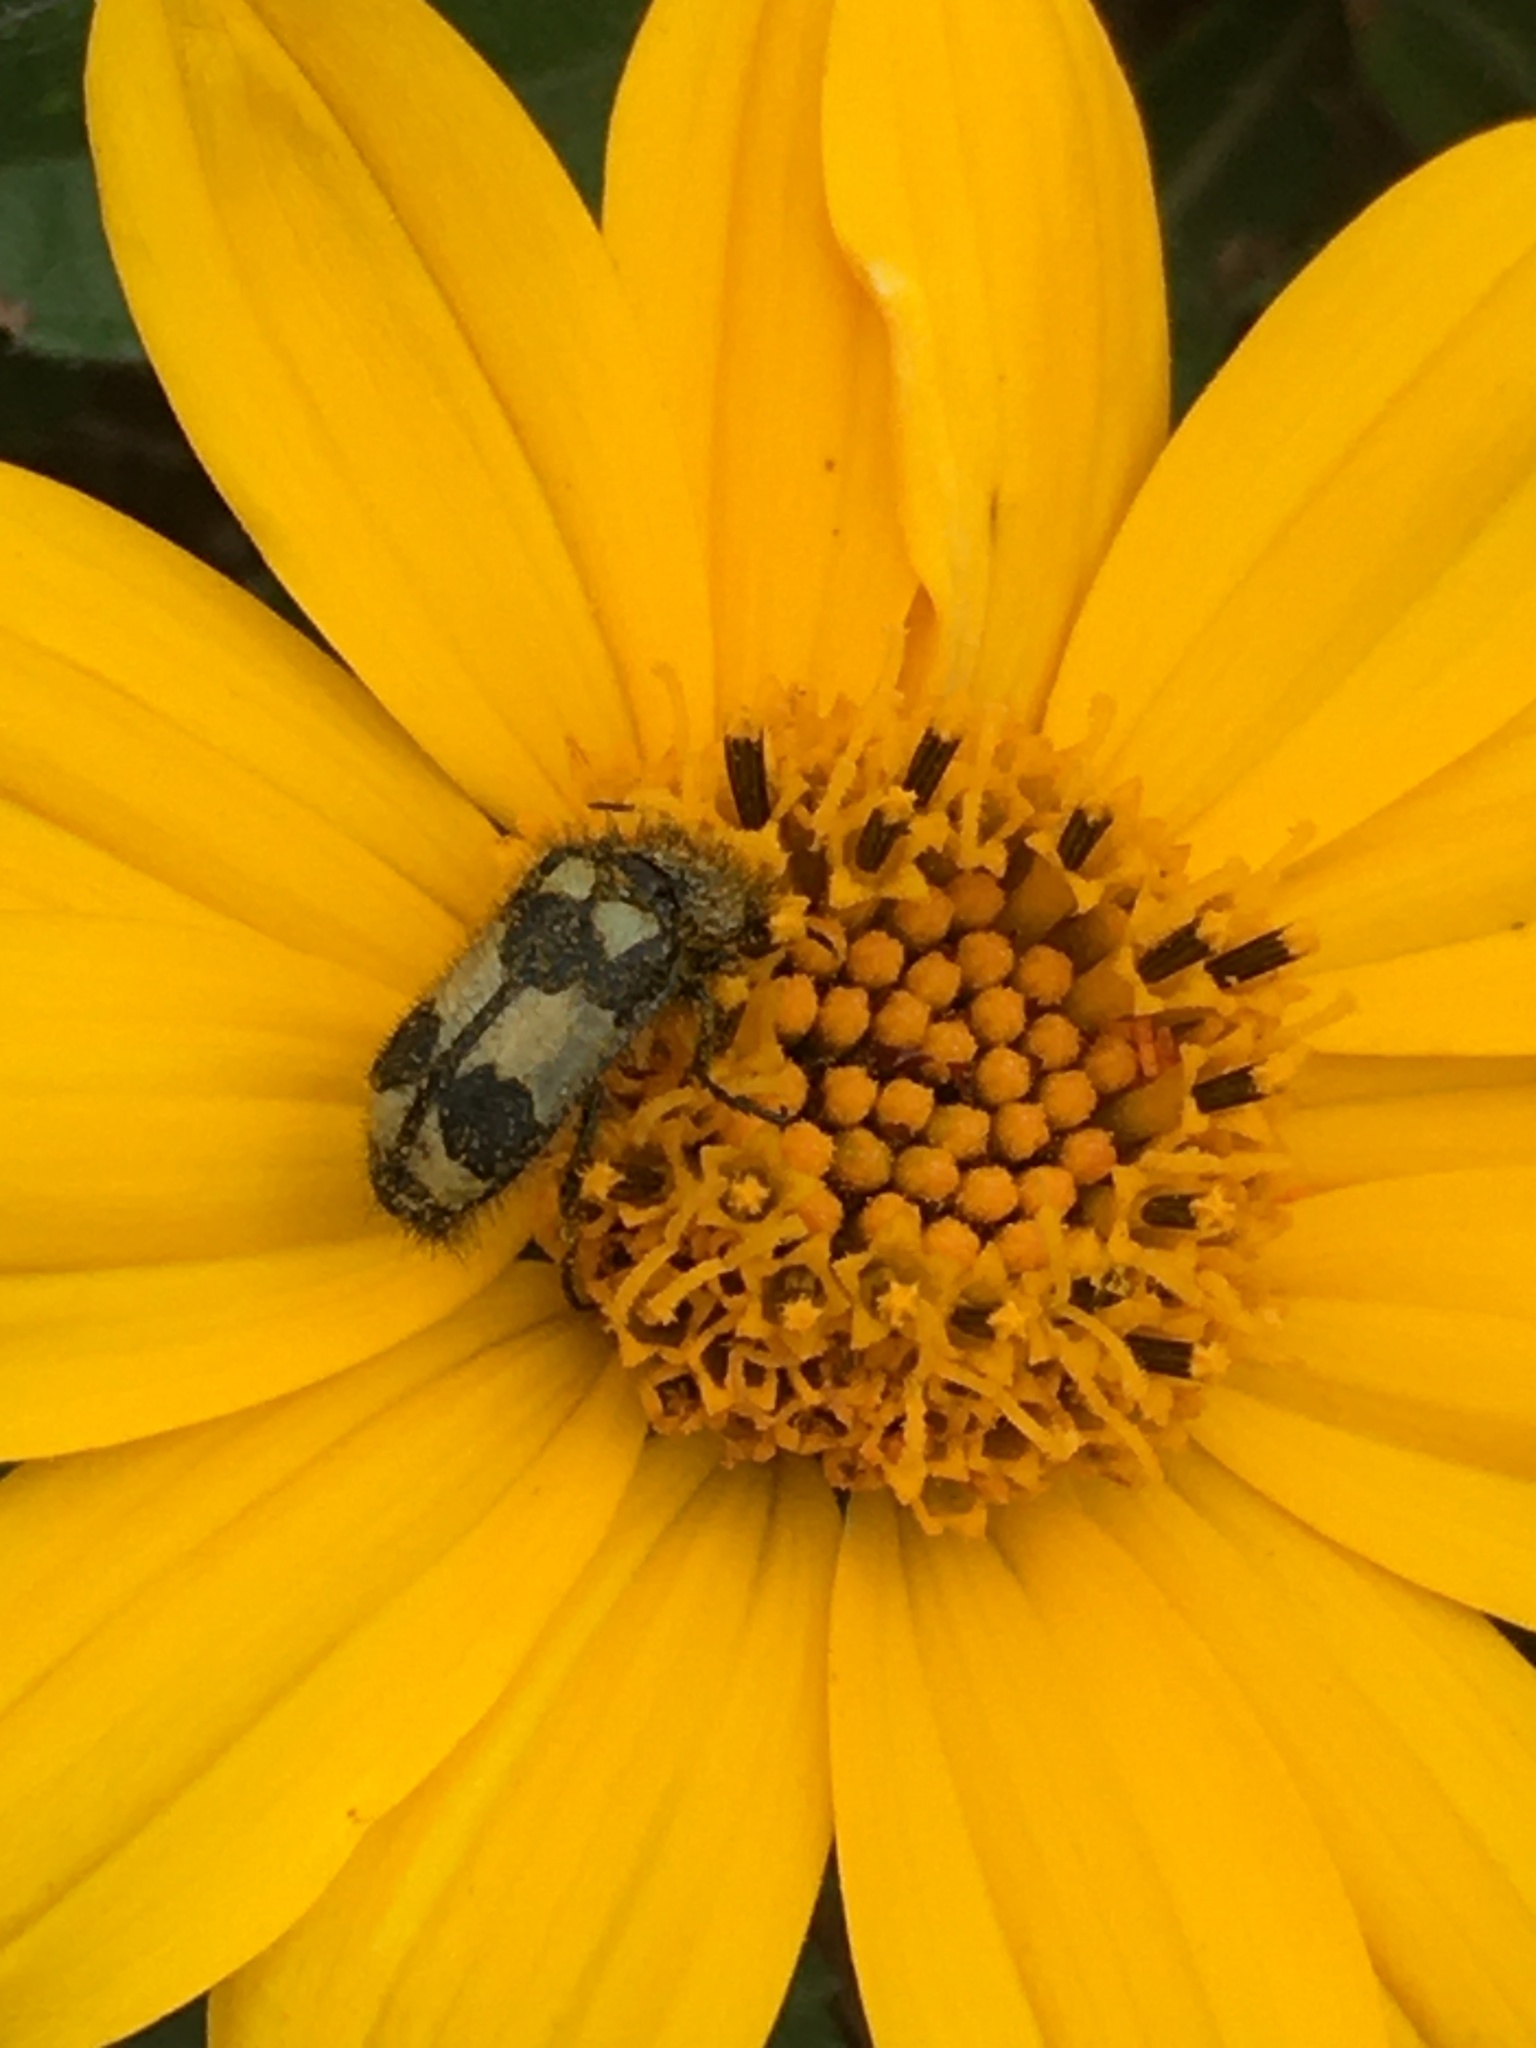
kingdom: Animalia
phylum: Arthropoda
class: Insecta
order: Coleoptera
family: Melyridae
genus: Astylus
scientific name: Astylus
